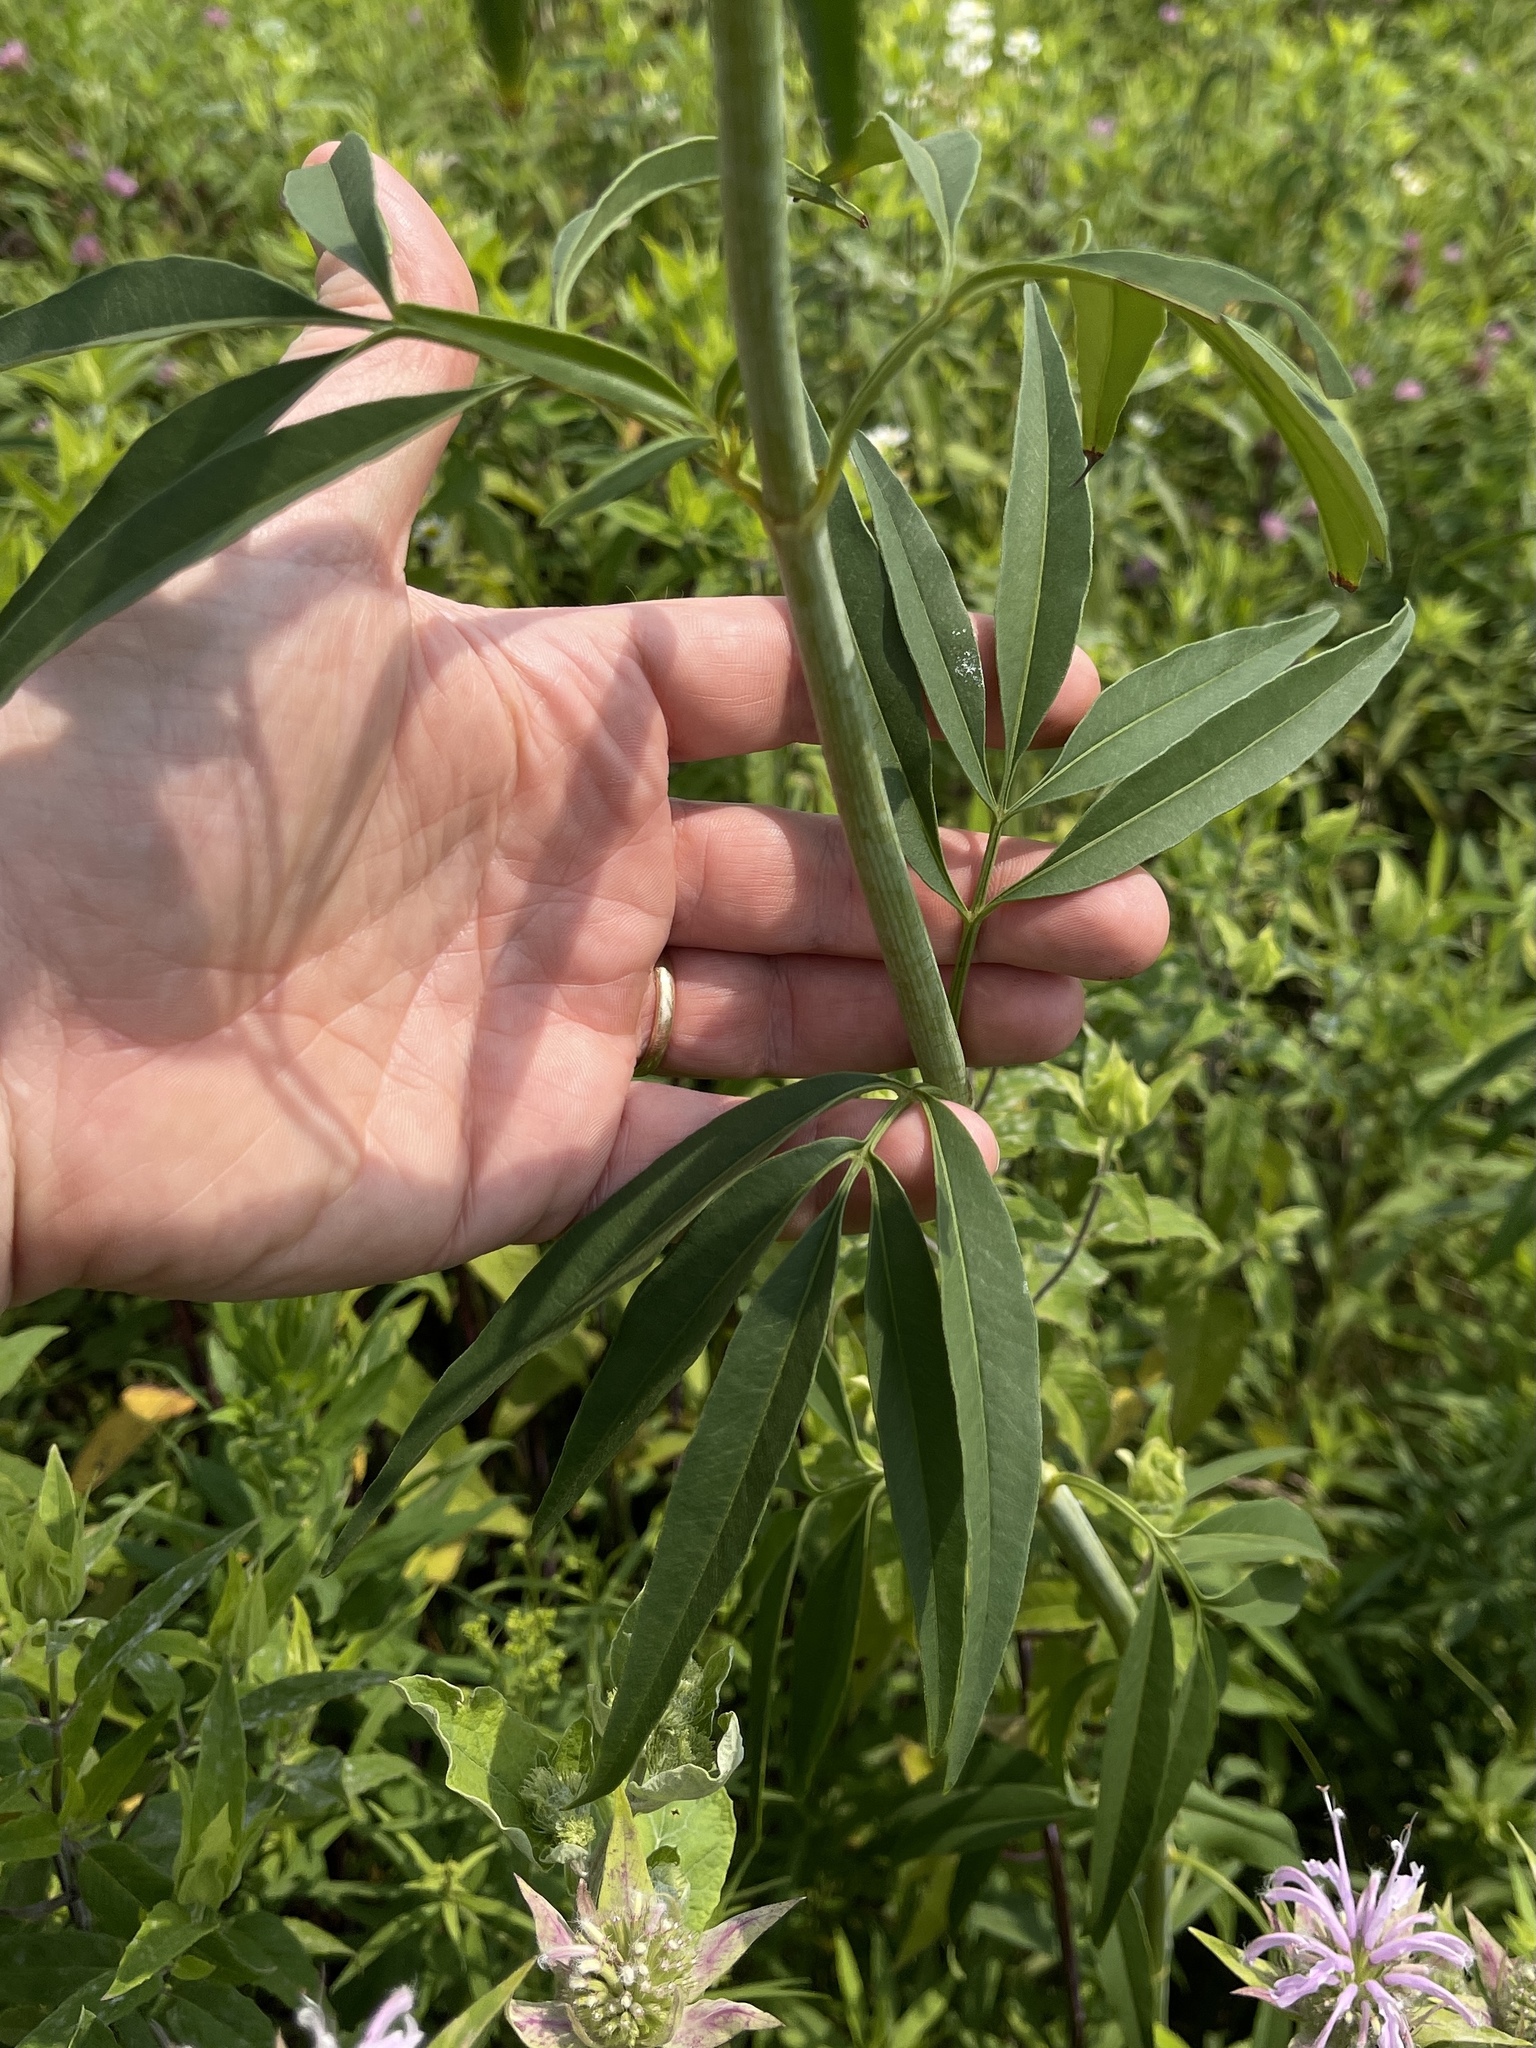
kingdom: Plantae
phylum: Tracheophyta
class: Magnoliopsida
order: Asterales
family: Asteraceae
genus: Coreopsis
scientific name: Coreopsis tripteris
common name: Tall coreopsis
